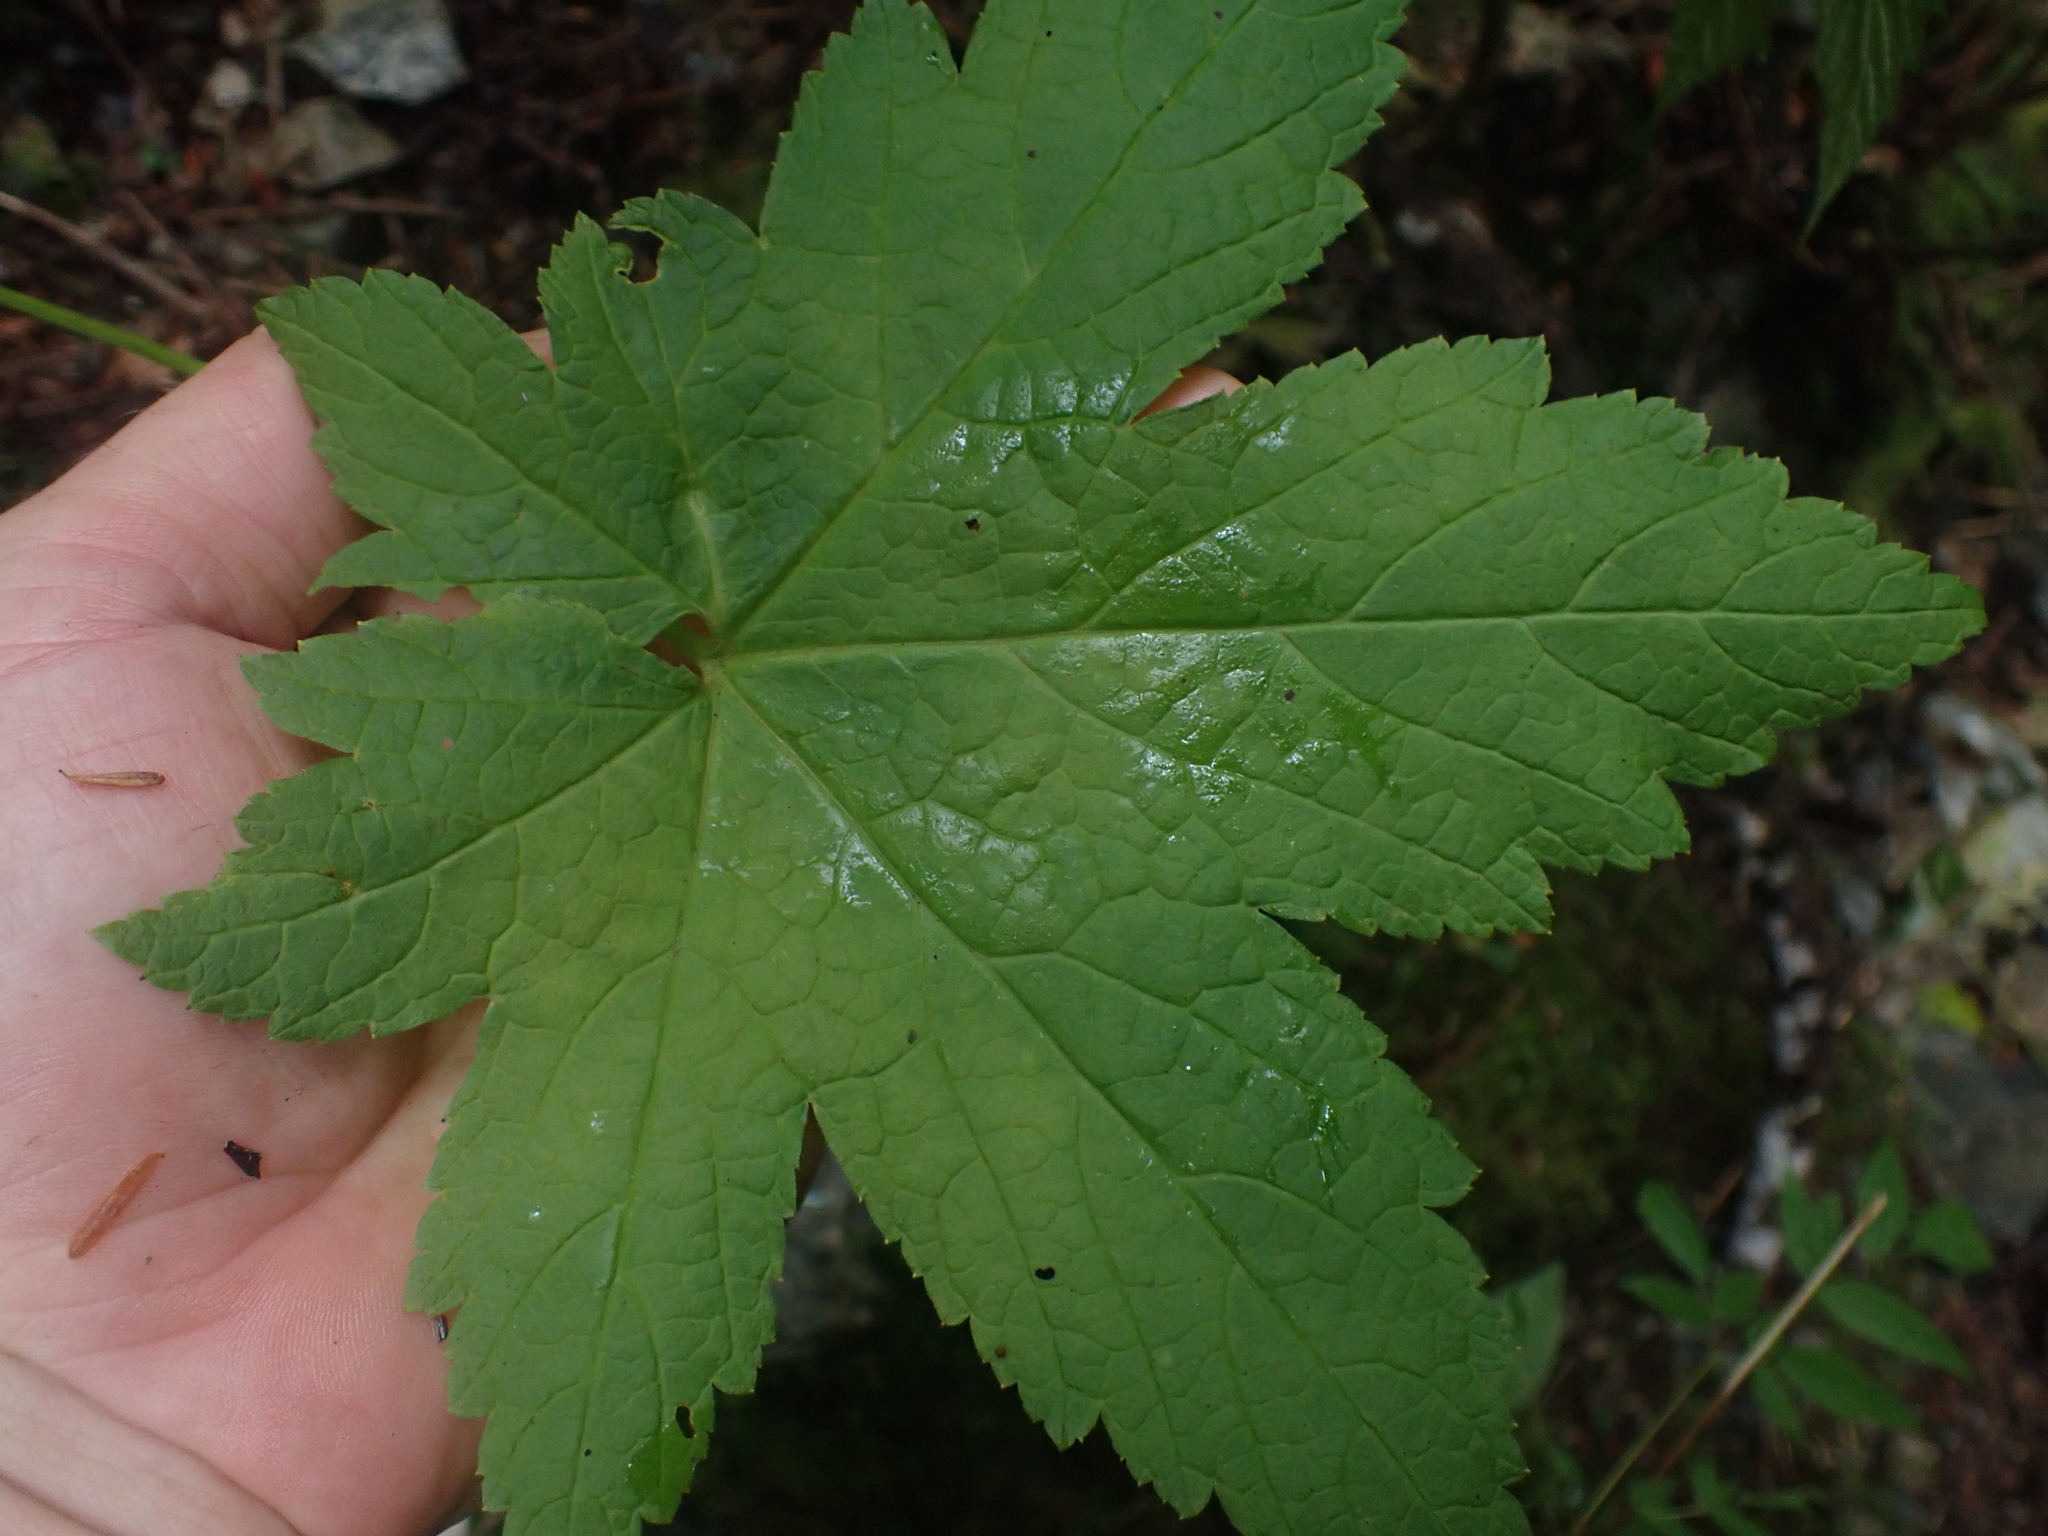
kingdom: Plantae
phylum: Tracheophyta
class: Magnoliopsida
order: Saxifragales
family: Grossulariaceae
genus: Ribes
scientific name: Ribes bracteosum
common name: California black currant
